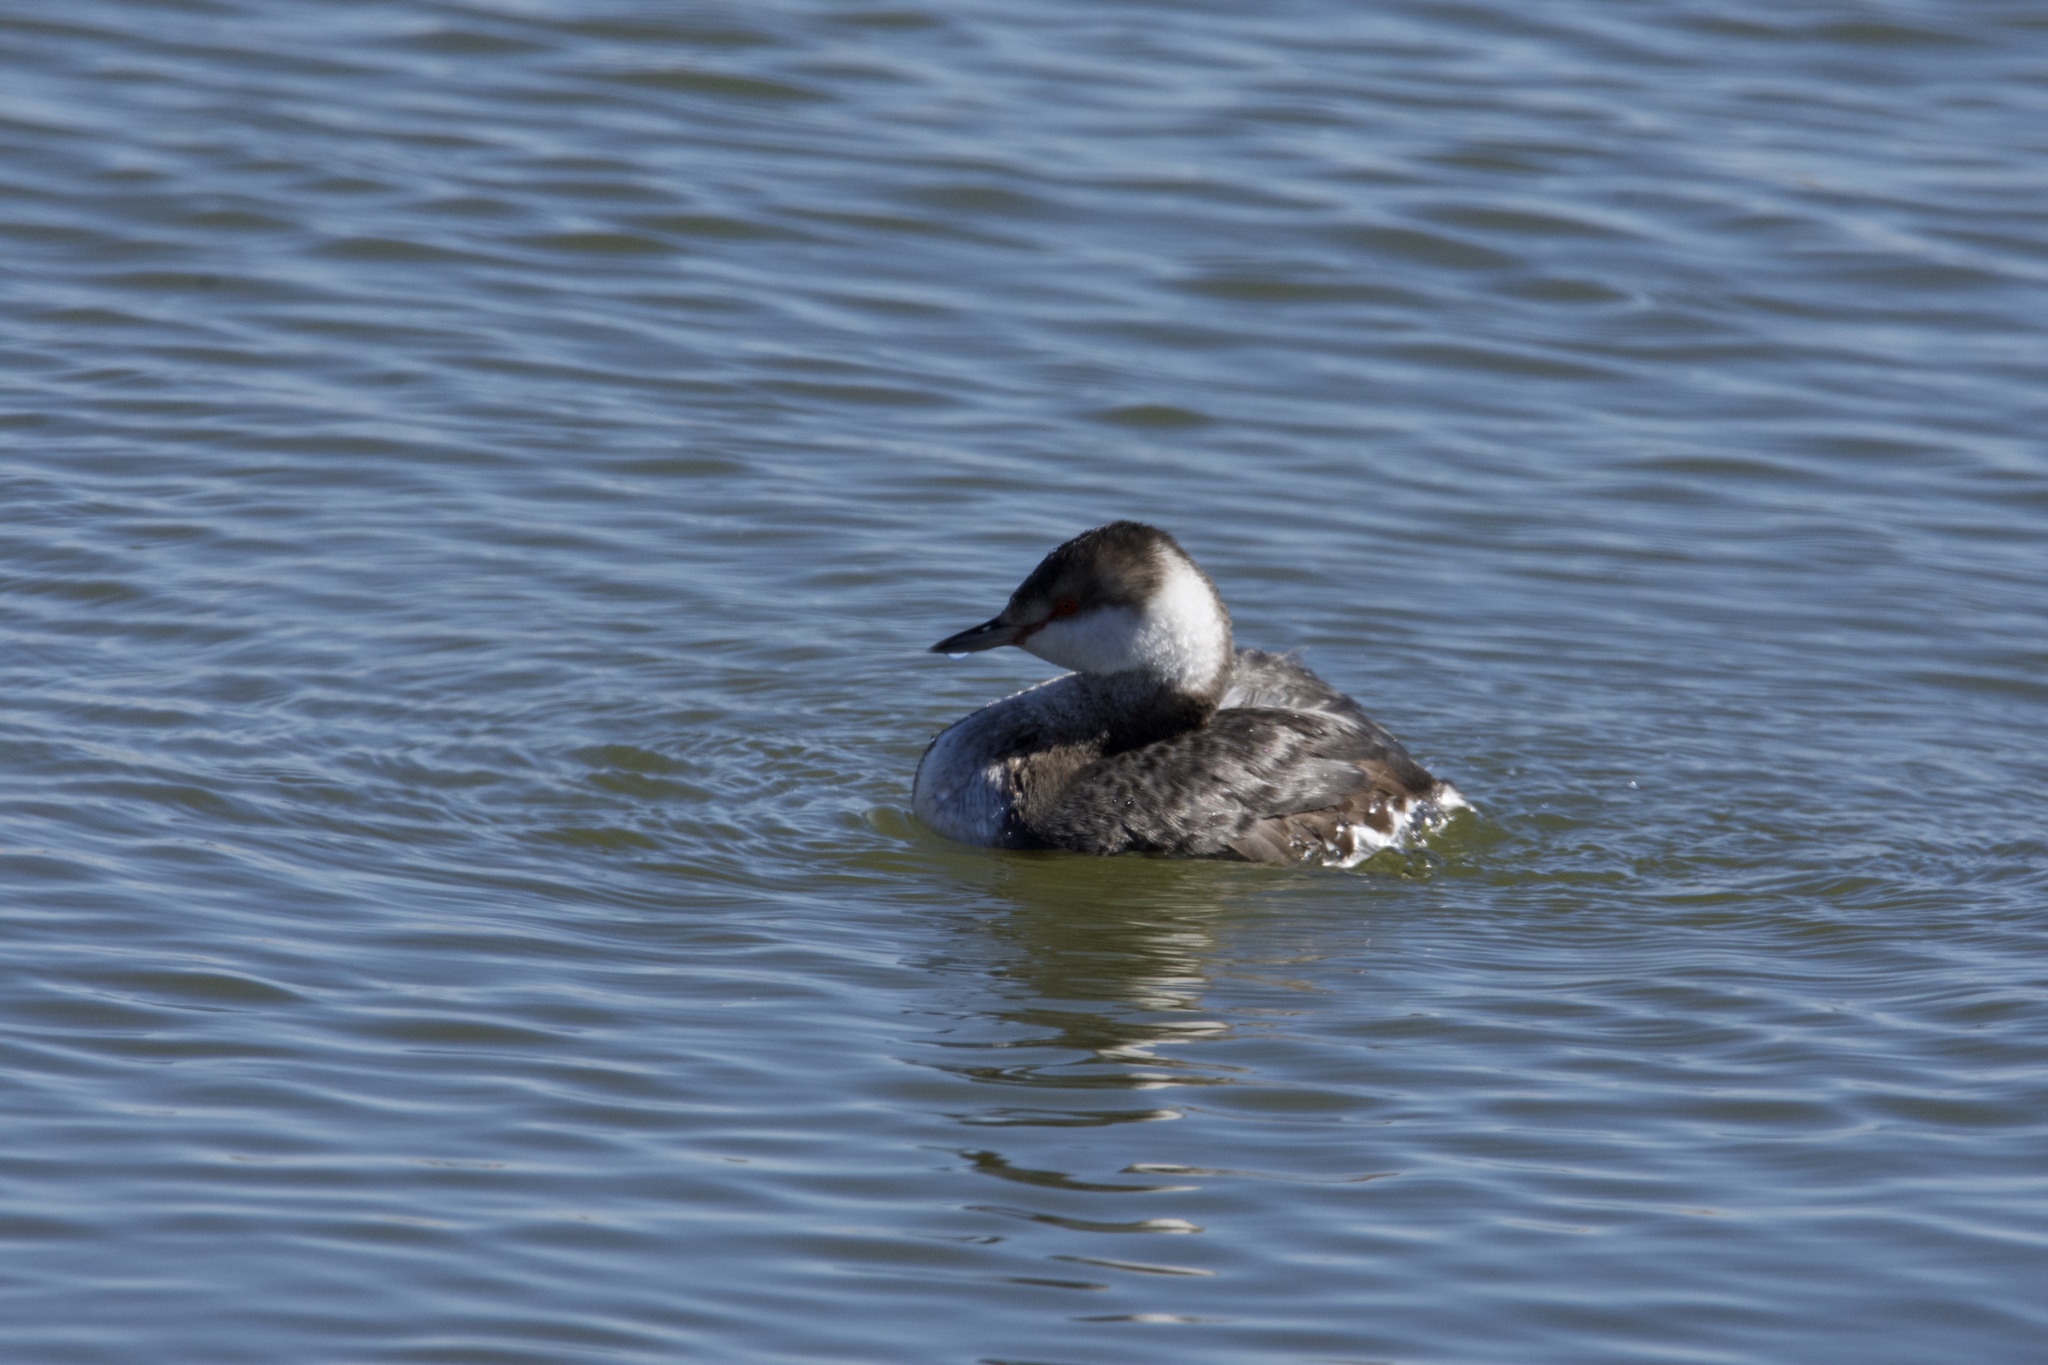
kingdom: Animalia
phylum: Chordata
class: Aves
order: Podicipediformes
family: Podicipedidae
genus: Podiceps
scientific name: Podiceps auritus
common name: Horned grebe
